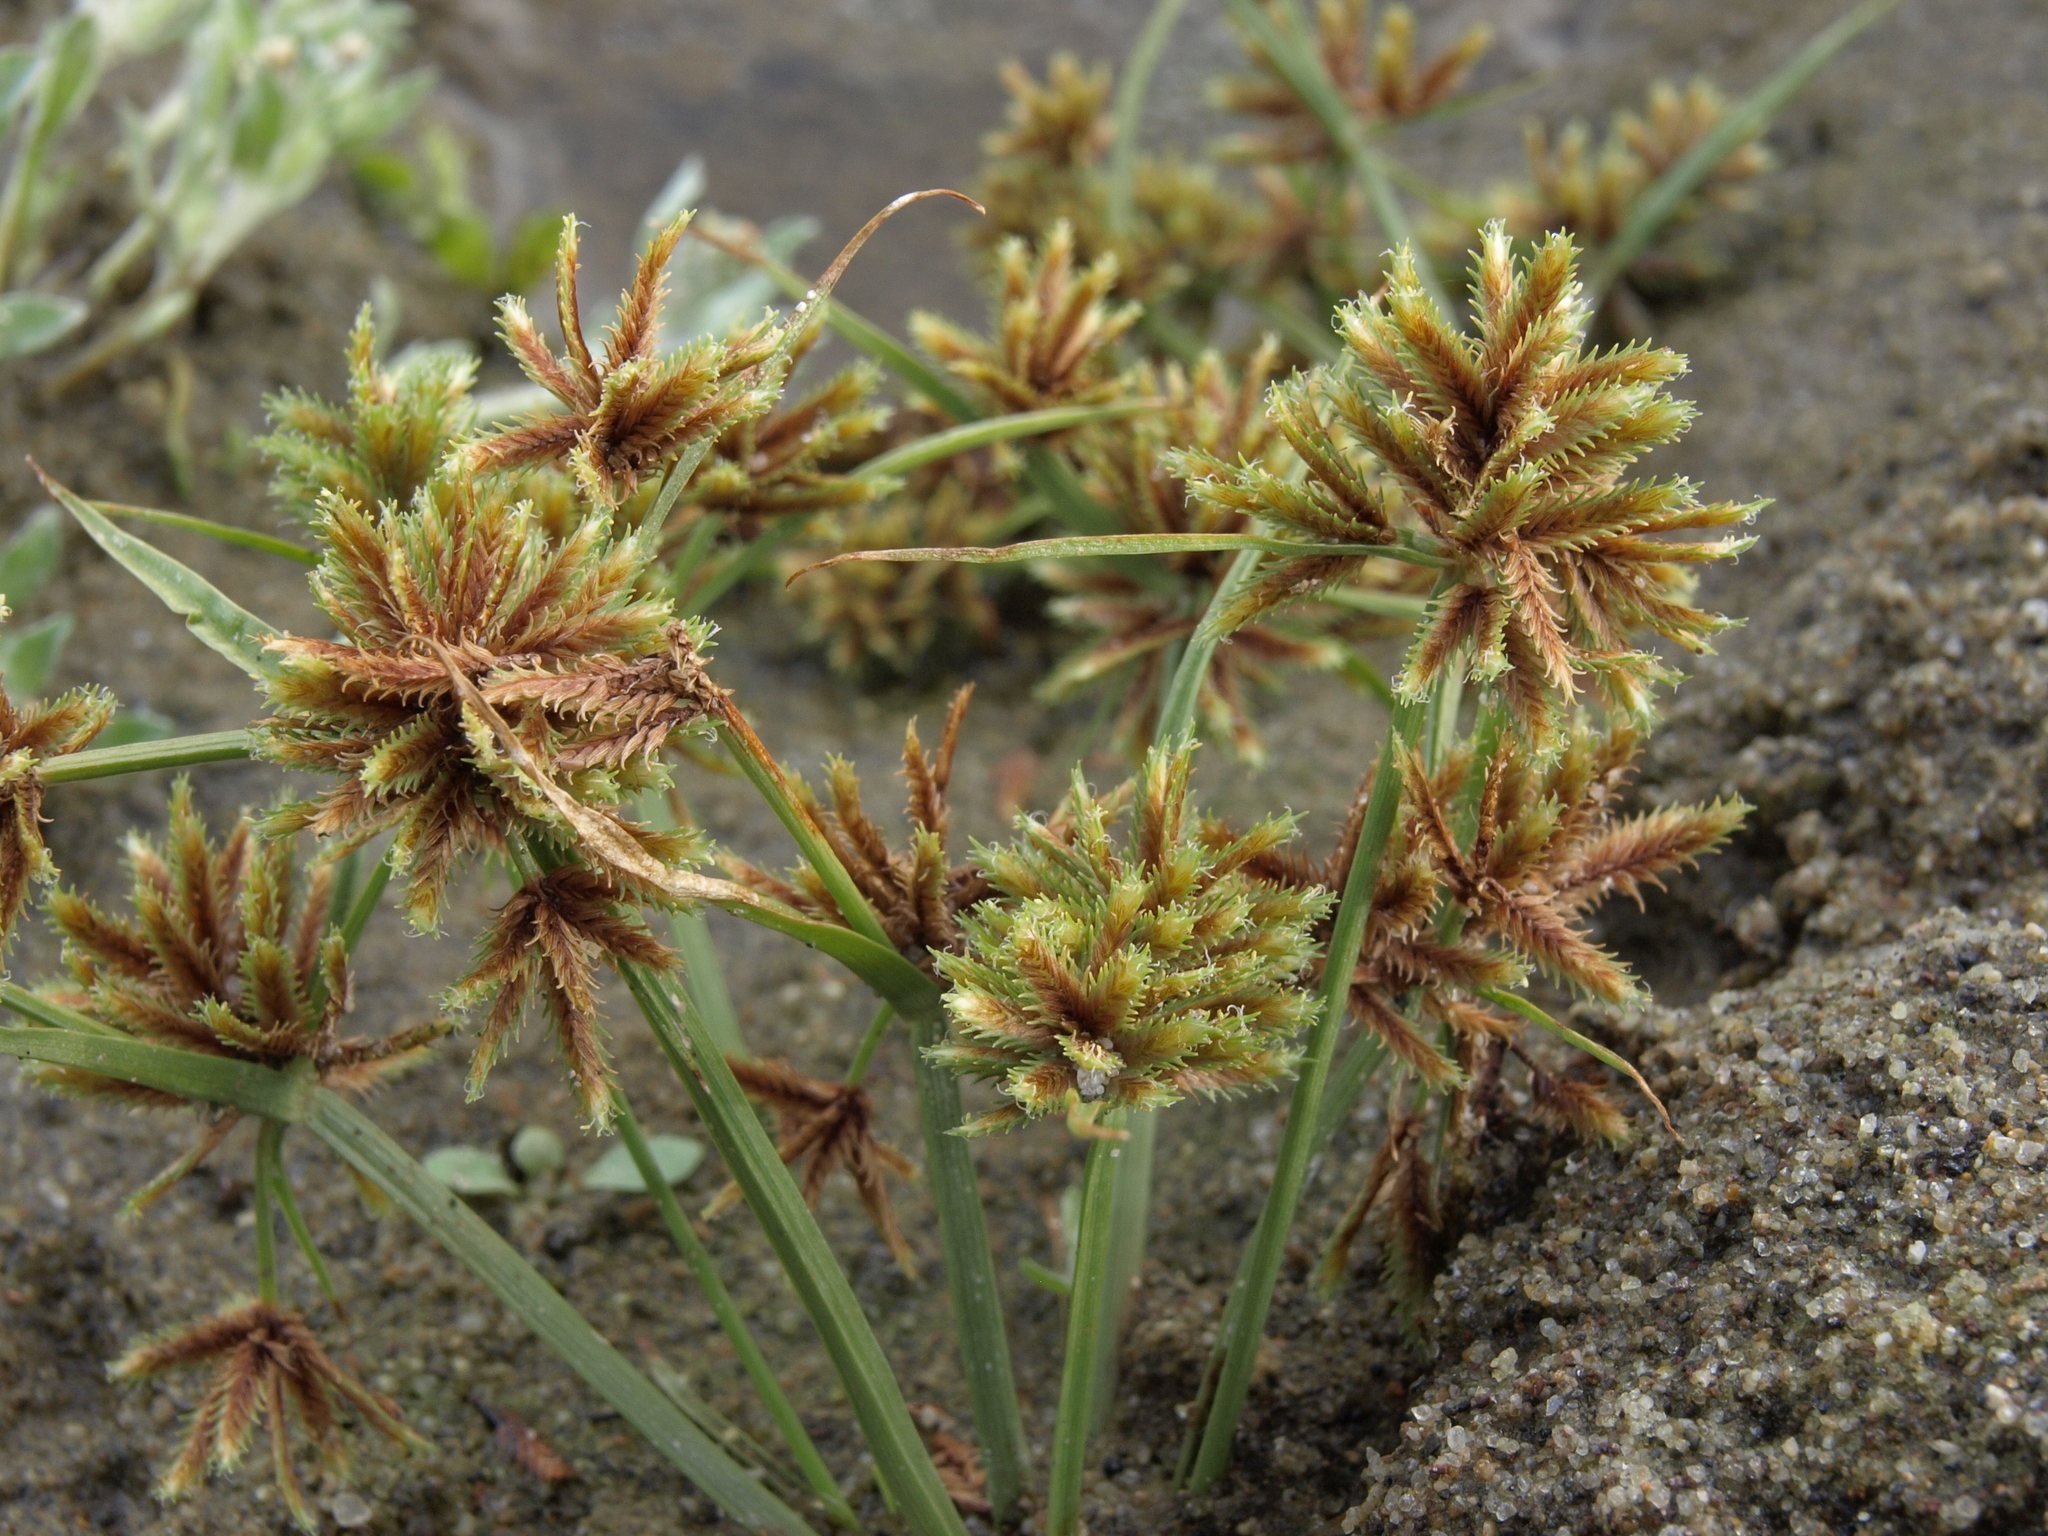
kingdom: Plantae
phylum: Tracheophyta
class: Liliopsida
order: Poales
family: Cyperaceae
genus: Cyperus
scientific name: Cyperus squarrosus
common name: Awned cyperus
